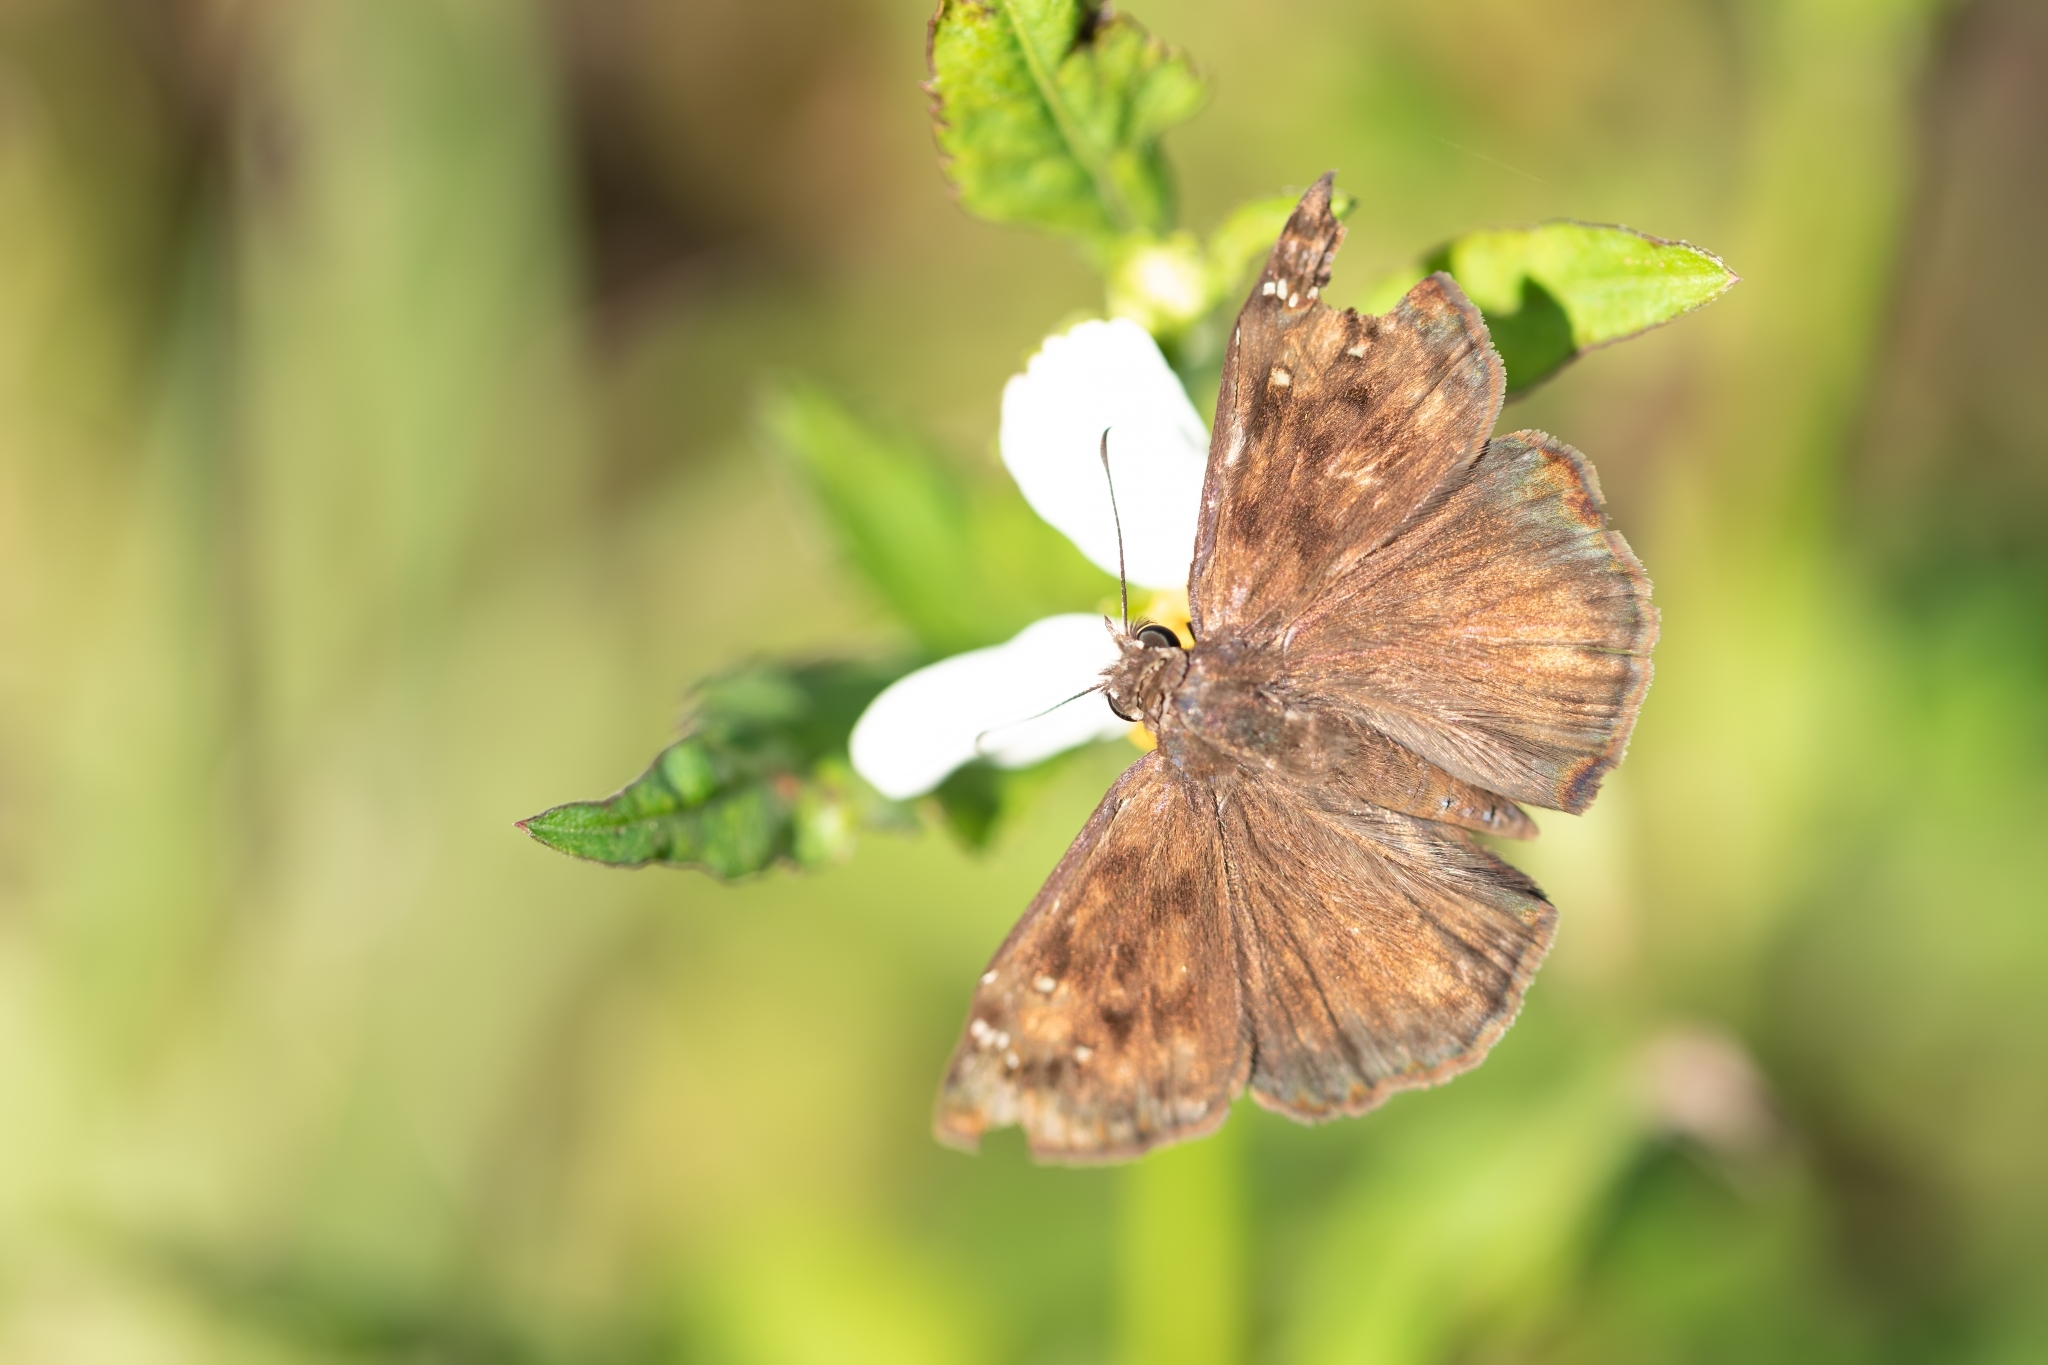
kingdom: Animalia
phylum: Arthropoda
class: Insecta
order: Lepidoptera
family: Hesperiidae
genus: Erynnis
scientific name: Erynnis horatius
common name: Horace's duskywing
